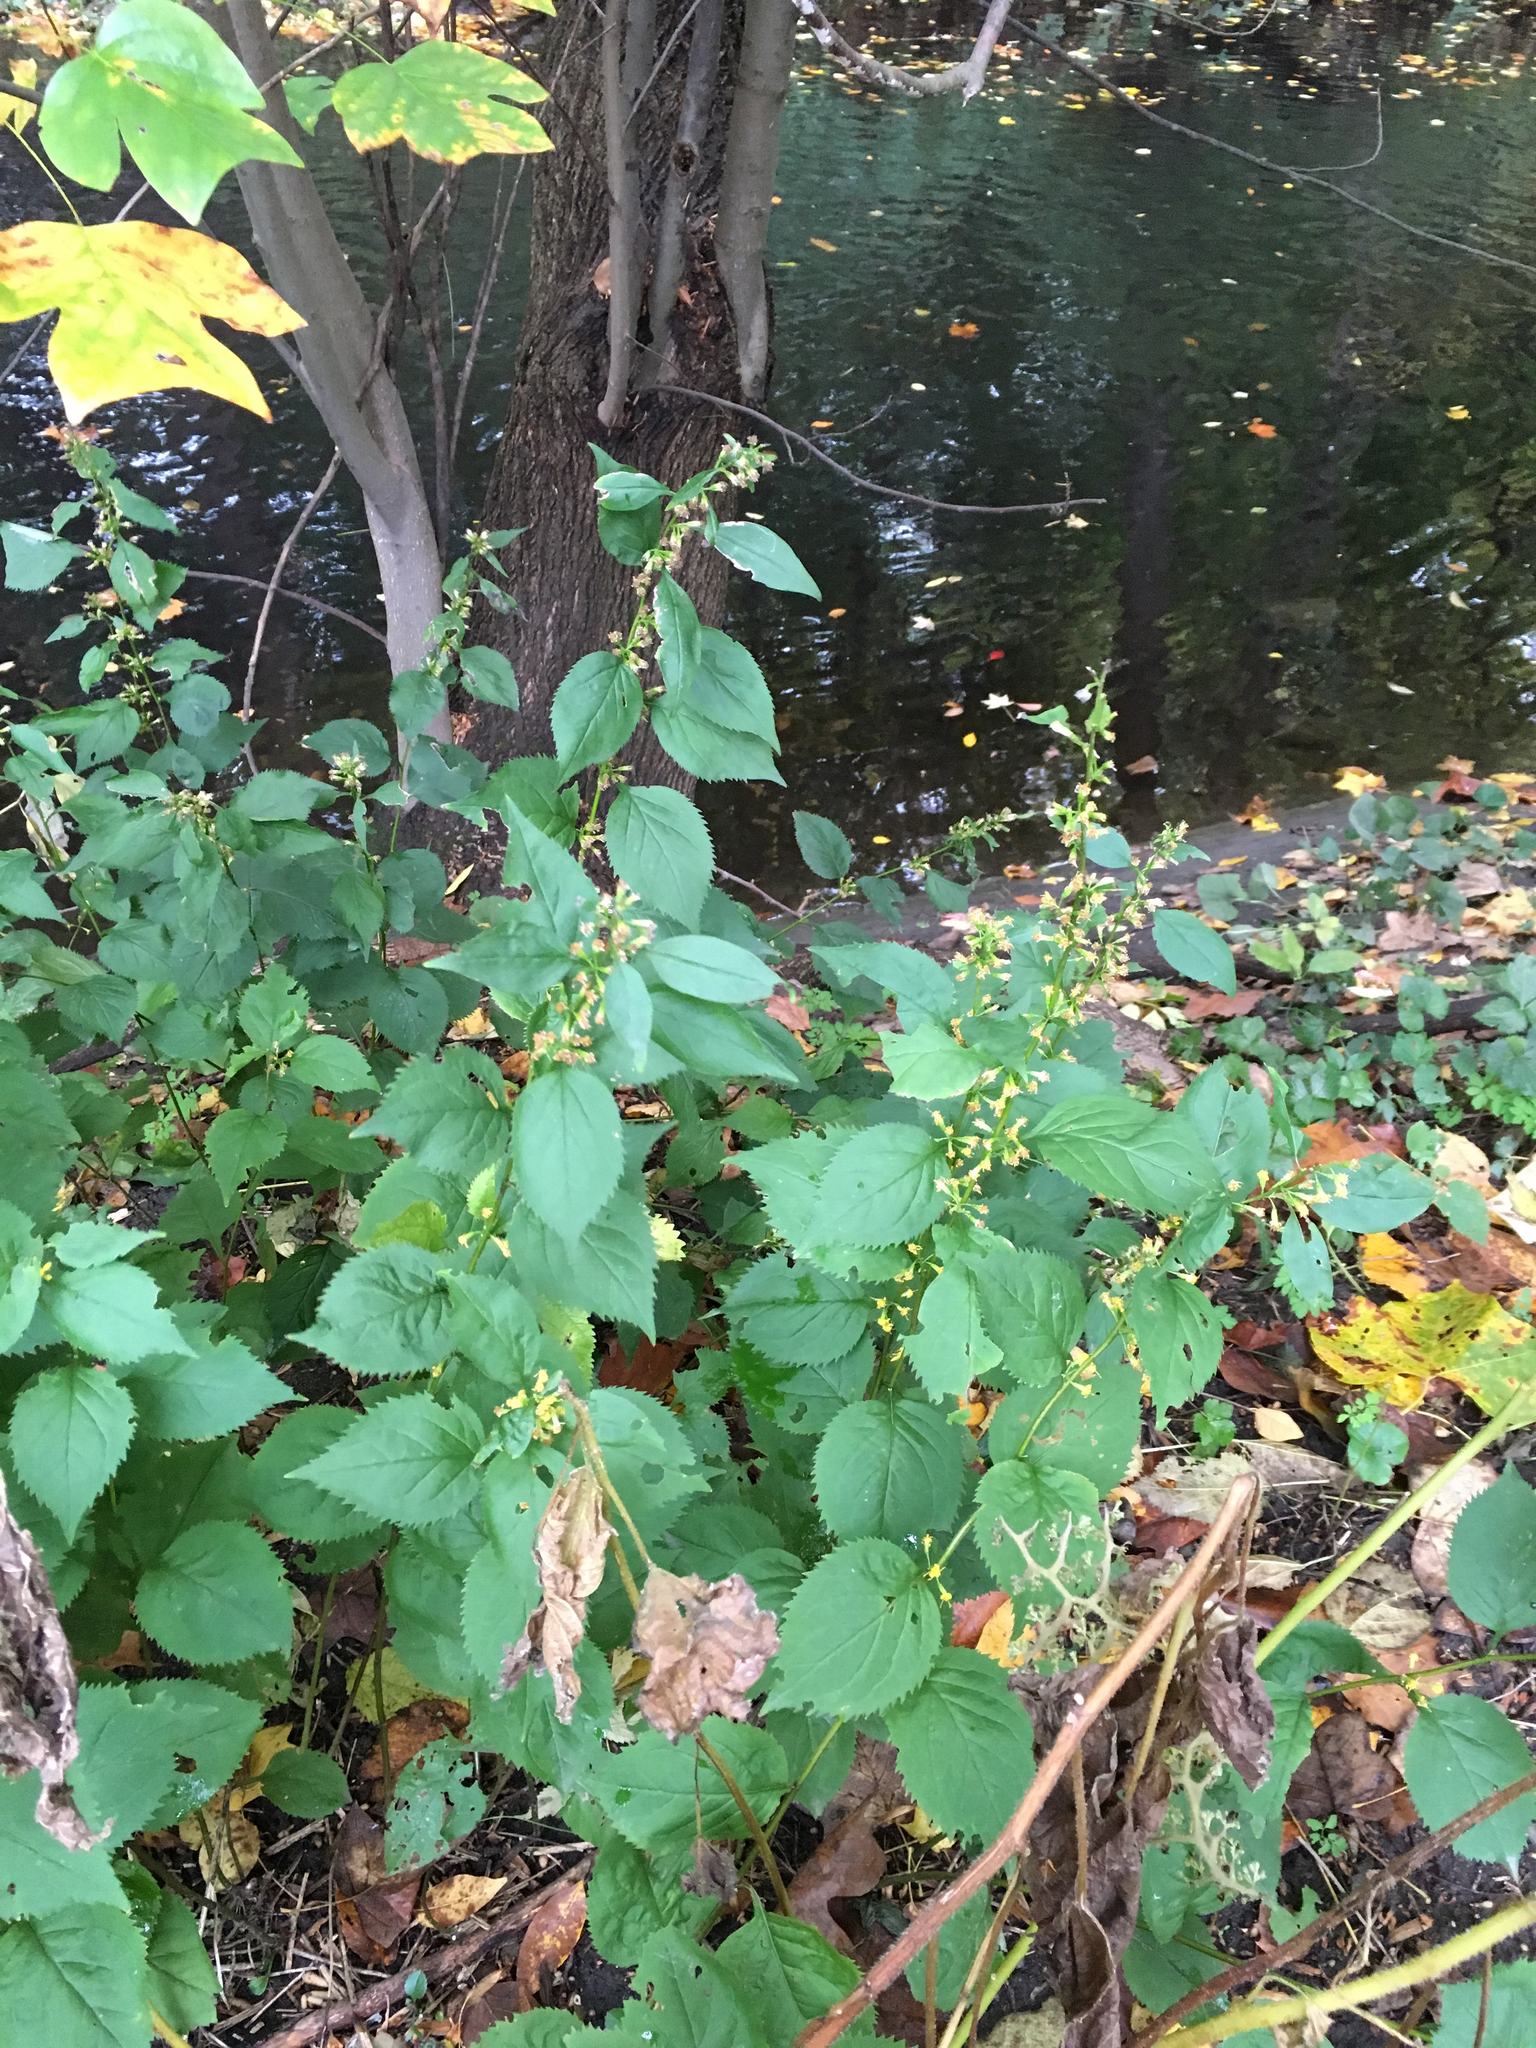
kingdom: Plantae
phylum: Tracheophyta
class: Magnoliopsida
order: Asterales
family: Asteraceae
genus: Solidago
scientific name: Solidago flexicaulis
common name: Zig-zag goldenrod
